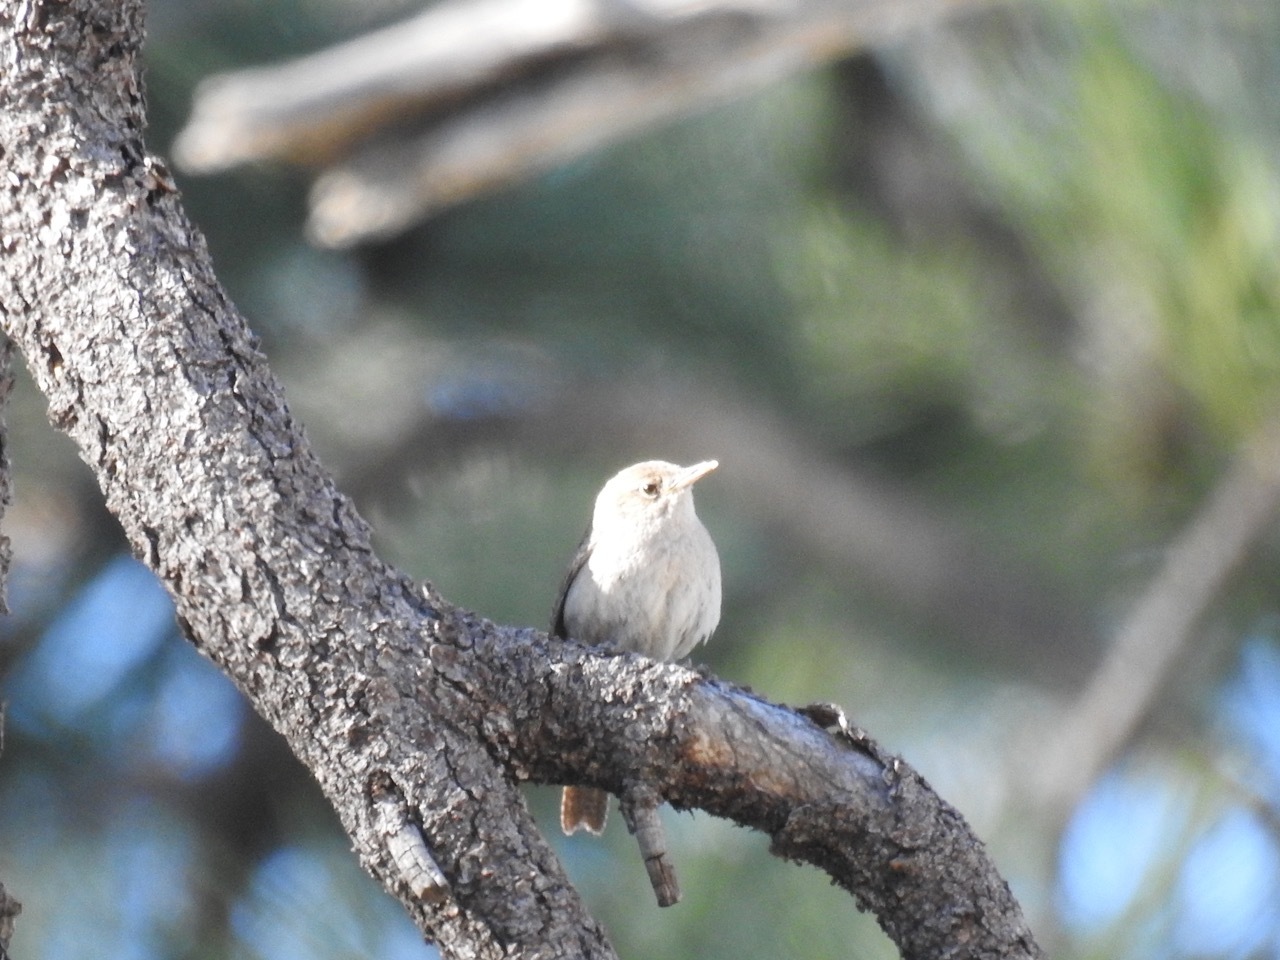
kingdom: Animalia
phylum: Chordata
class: Aves
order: Passeriformes
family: Troglodytidae
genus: Troglodytes
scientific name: Troglodytes aedon
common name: House wren
